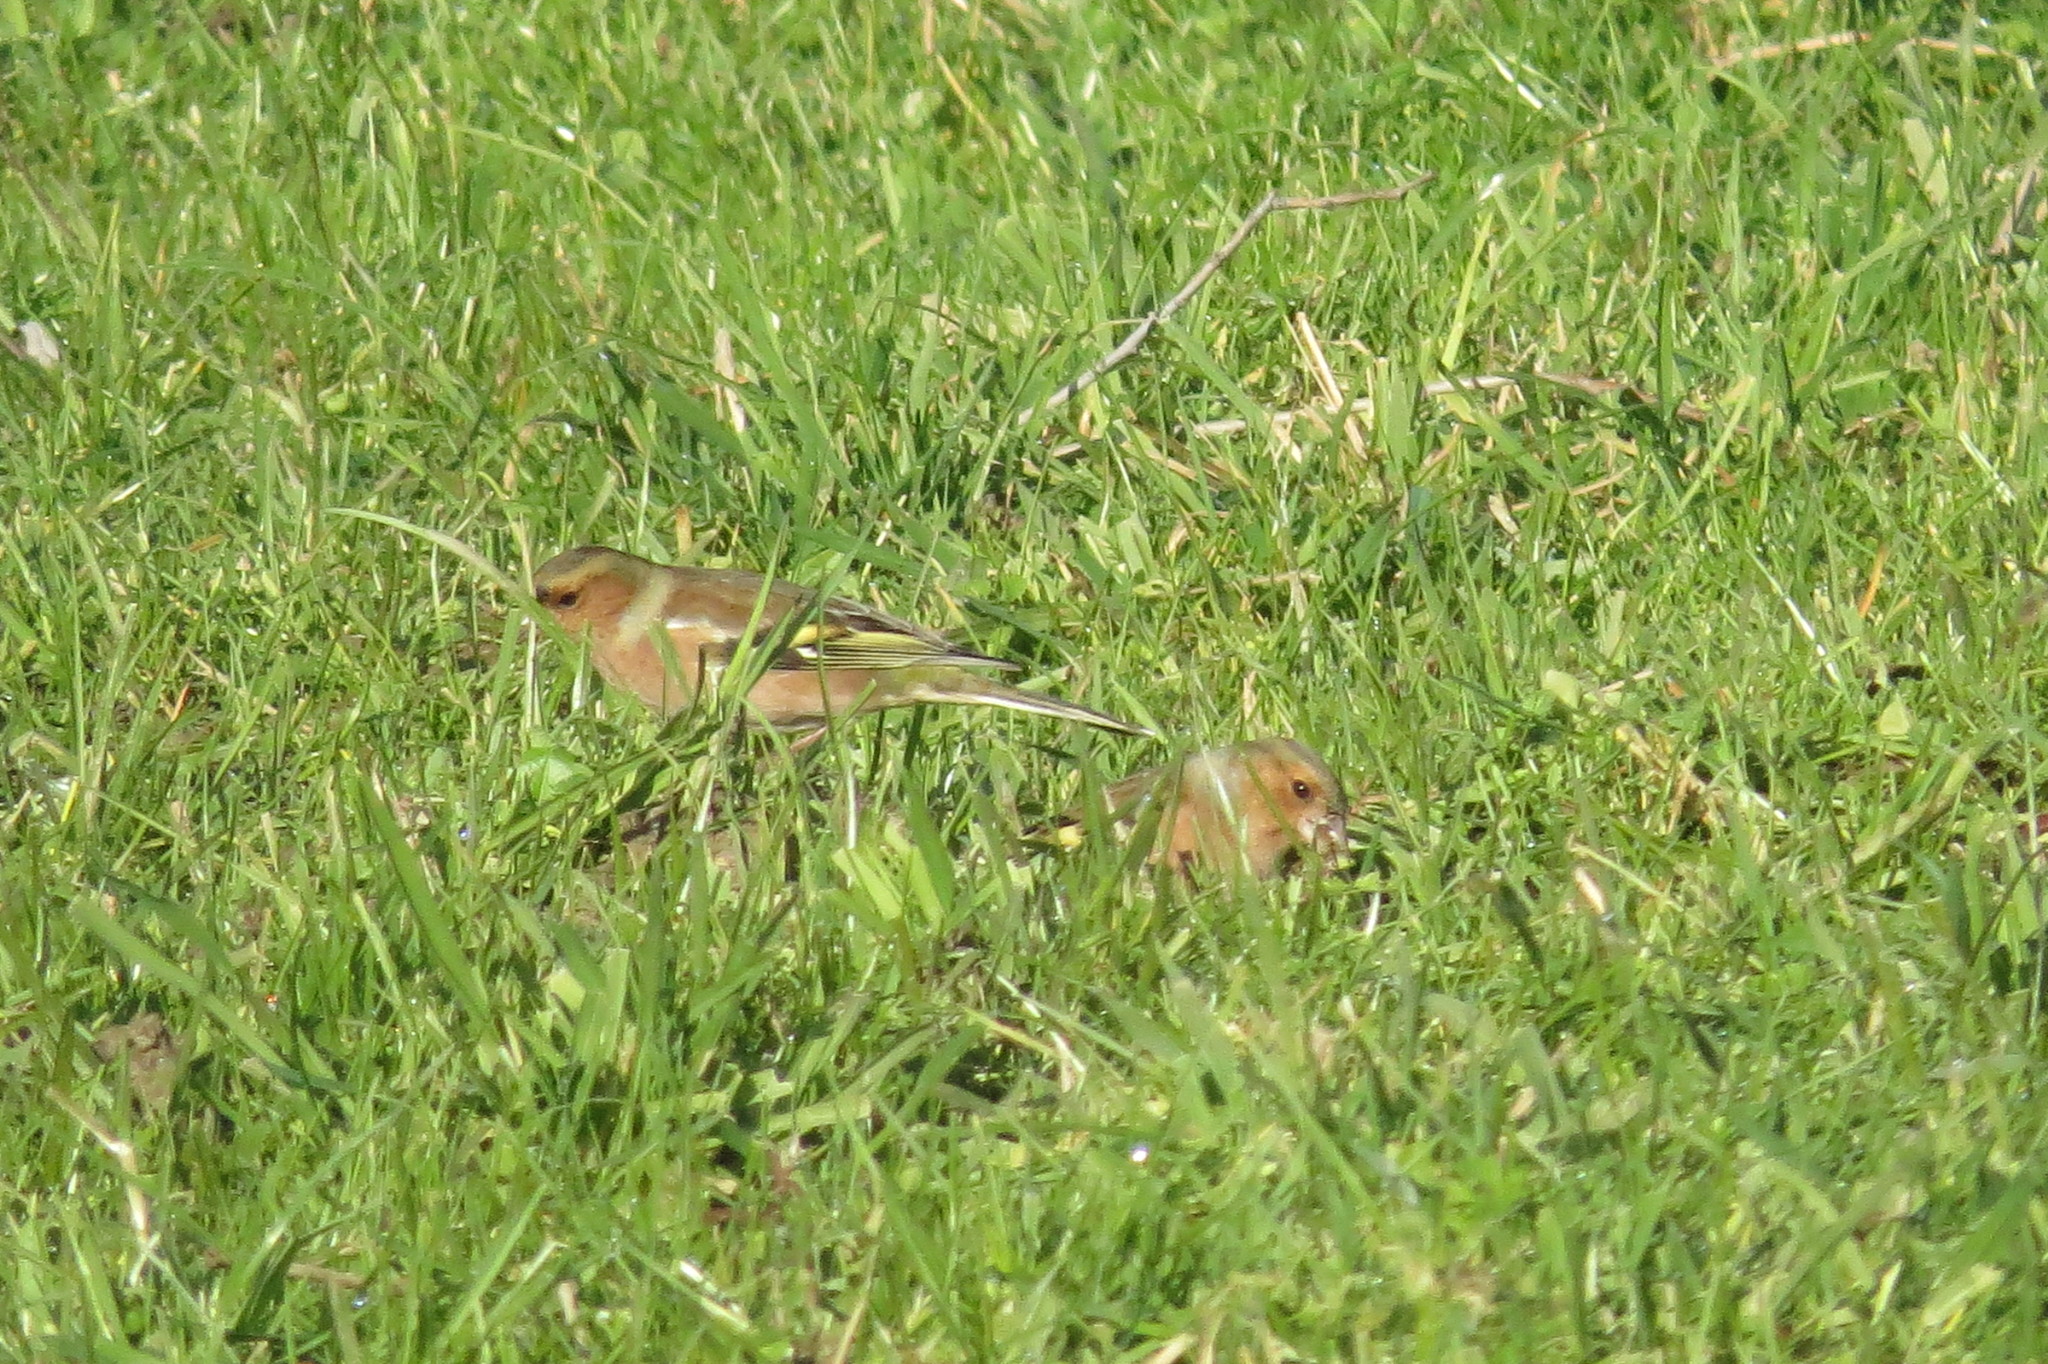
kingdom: Animalia
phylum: Chordata
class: Aves
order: Passeriformes
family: Fringillidae
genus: Fringilla
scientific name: Fringilla coelebs
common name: Common chaffinch
